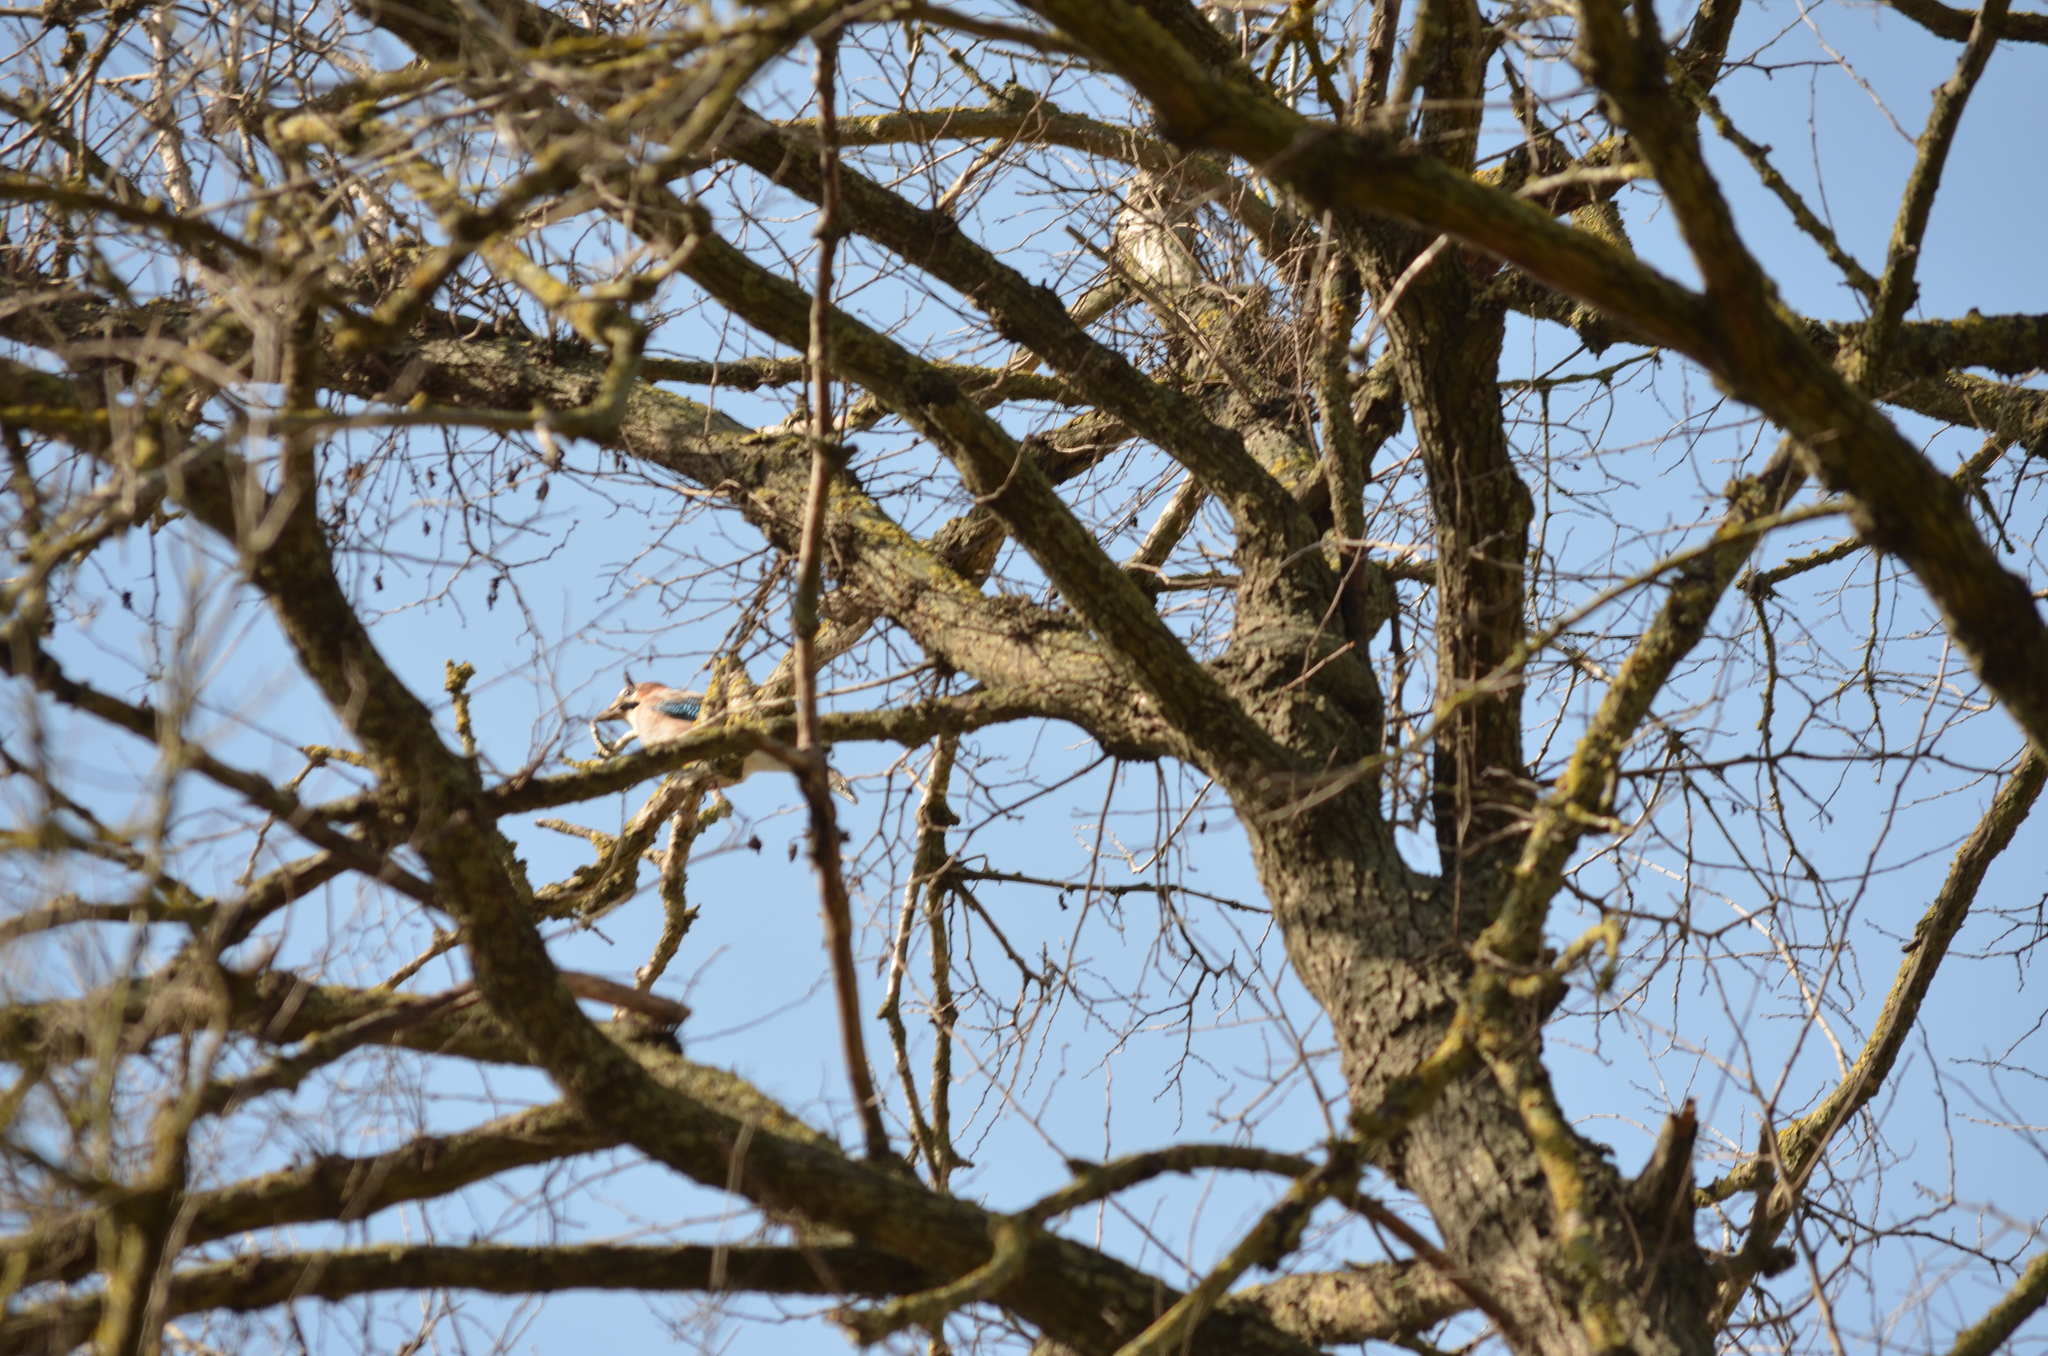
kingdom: Animalia
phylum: Chordata
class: Aves
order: Passeriformes
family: Corvidae
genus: Garrulus
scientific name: Garrulus glandarius
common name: Eurasian jay
